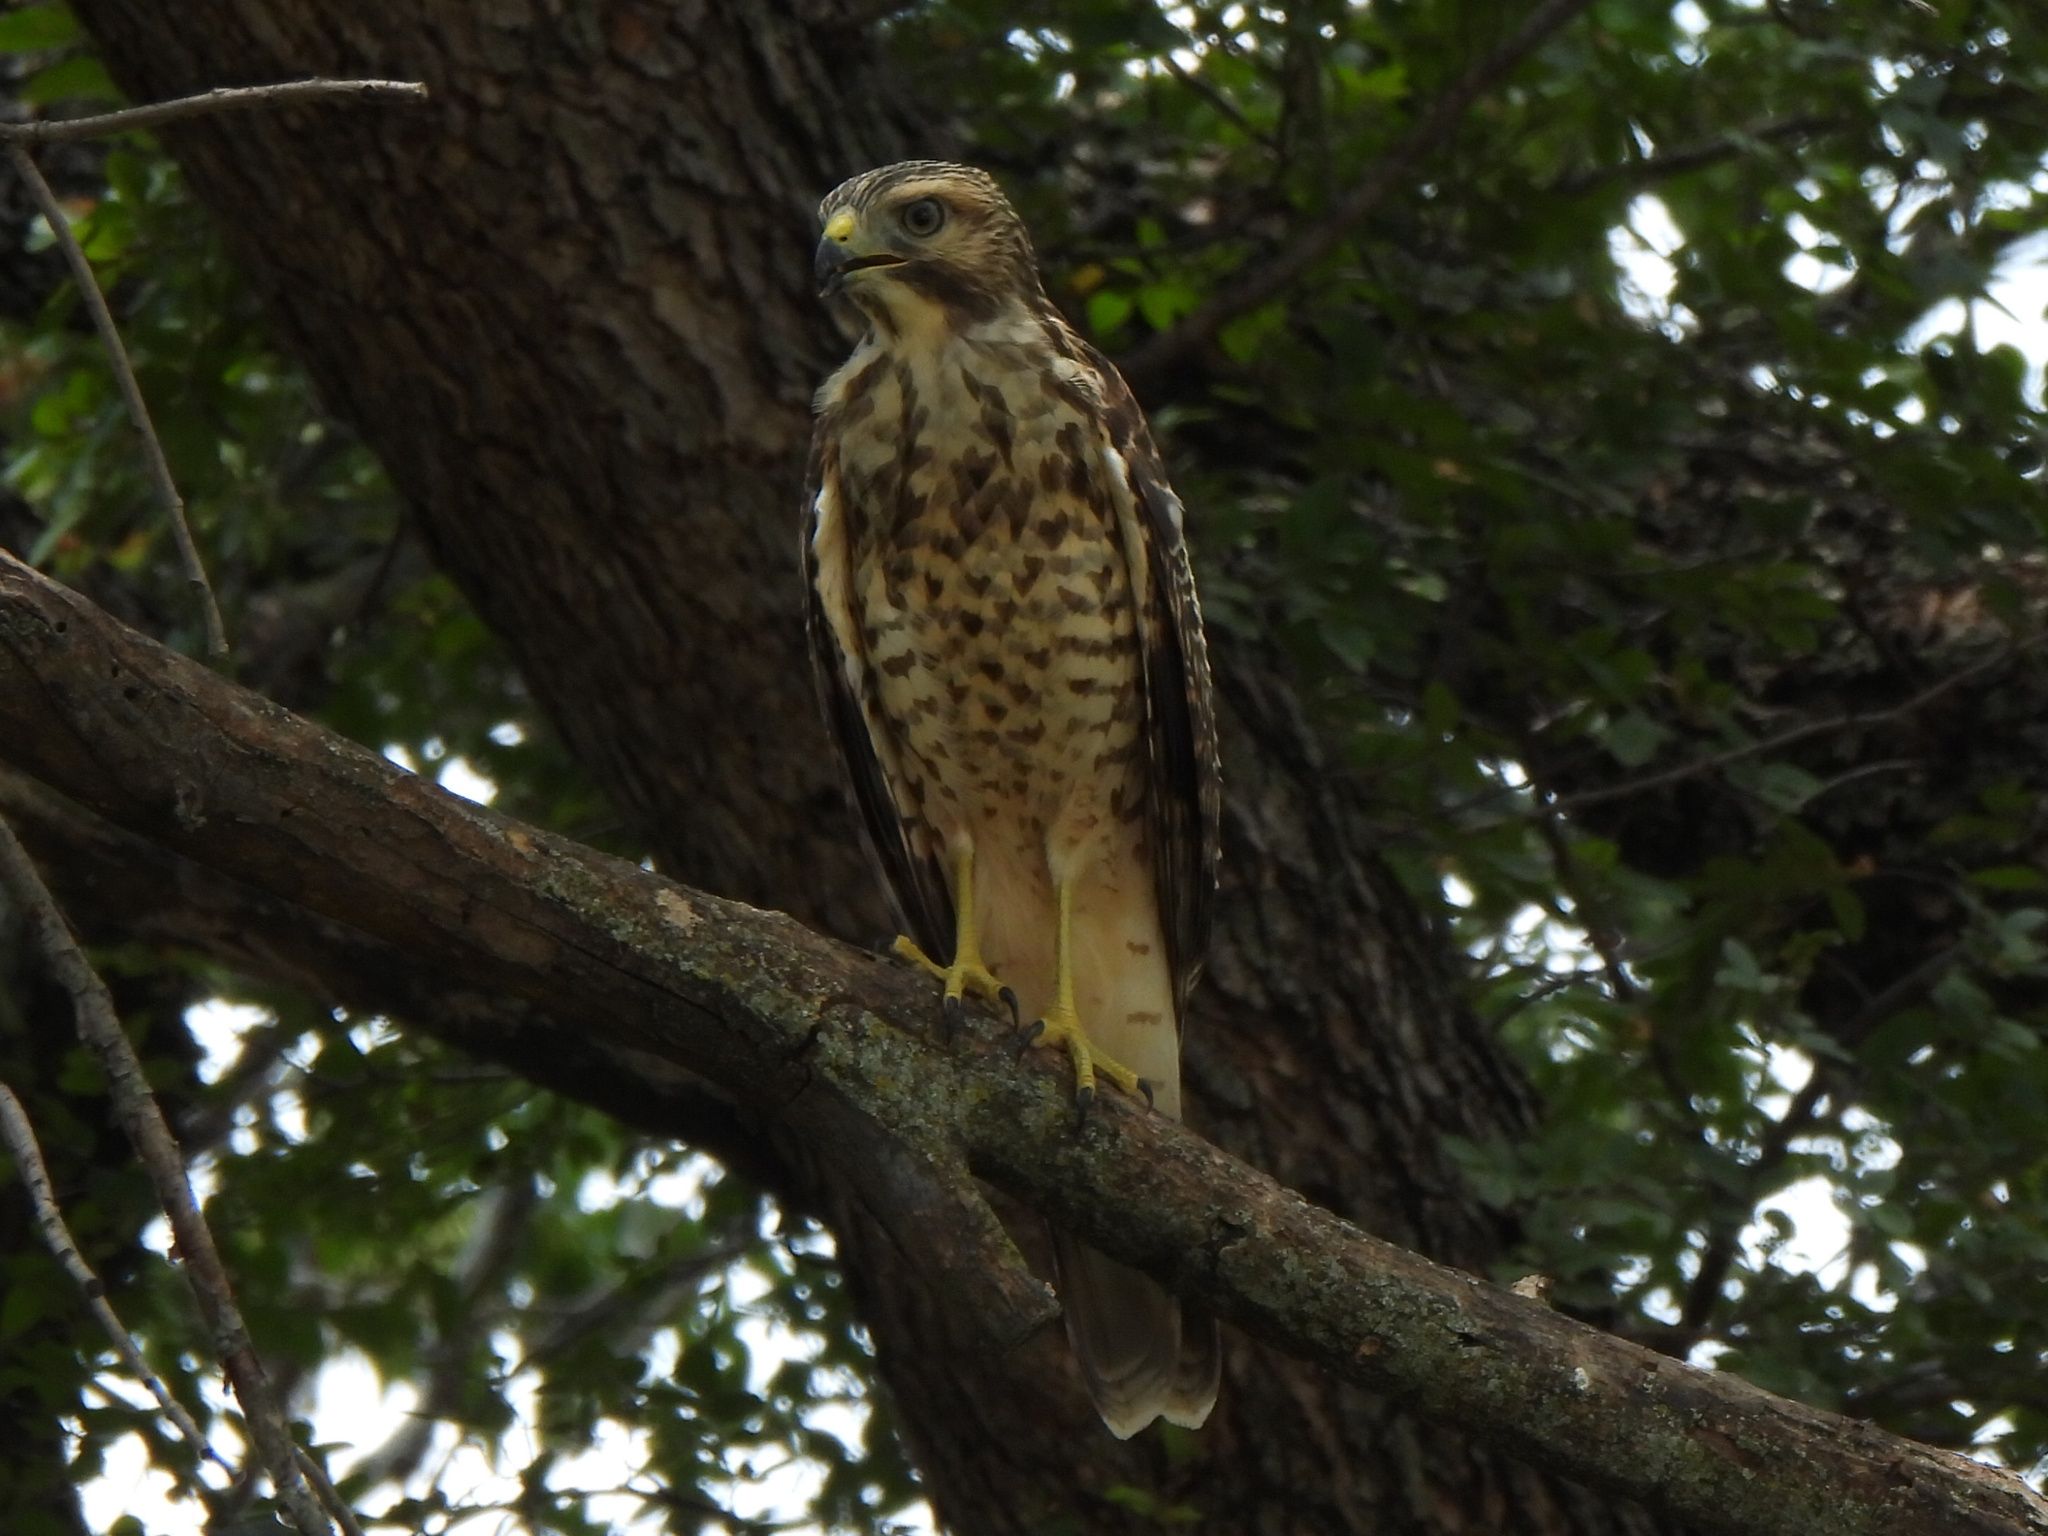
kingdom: Animalia
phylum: Chordata
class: Aves
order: Accipitriformes
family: Accipitridae
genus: Buteo
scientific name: Buteo lineatus
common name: Red-shouldered hawk
